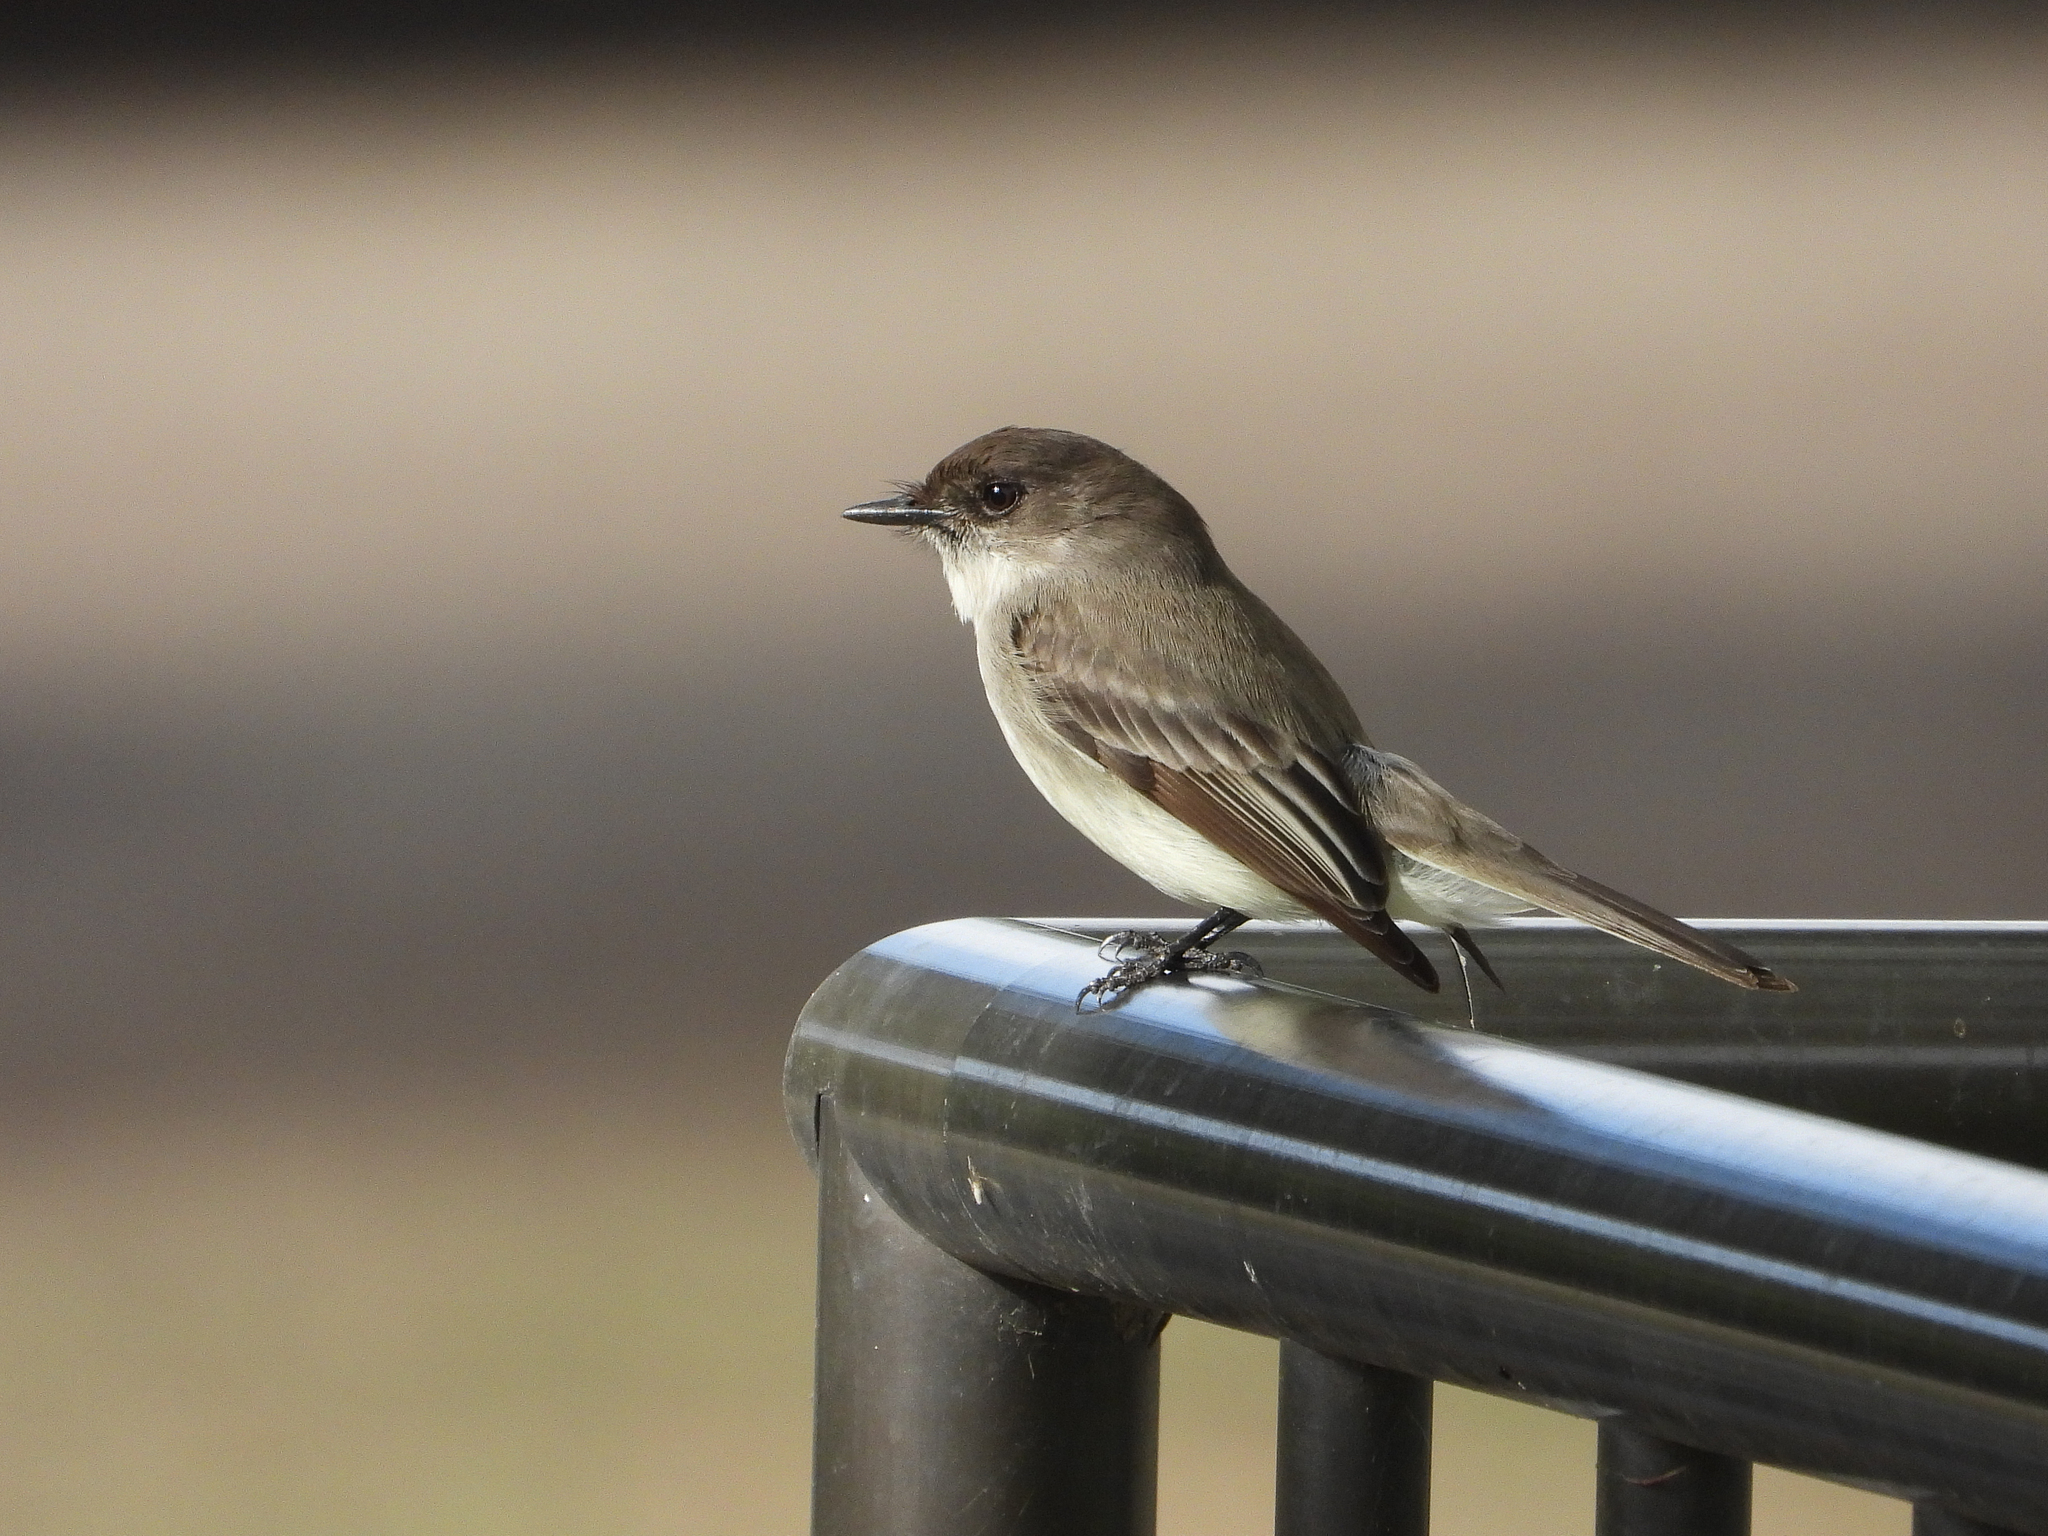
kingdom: Animalia
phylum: Chordata
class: Aves
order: Passeriformes
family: Tyrannidae
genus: Sayornis
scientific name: Sayornis phoebe
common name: Eastern phoebe
